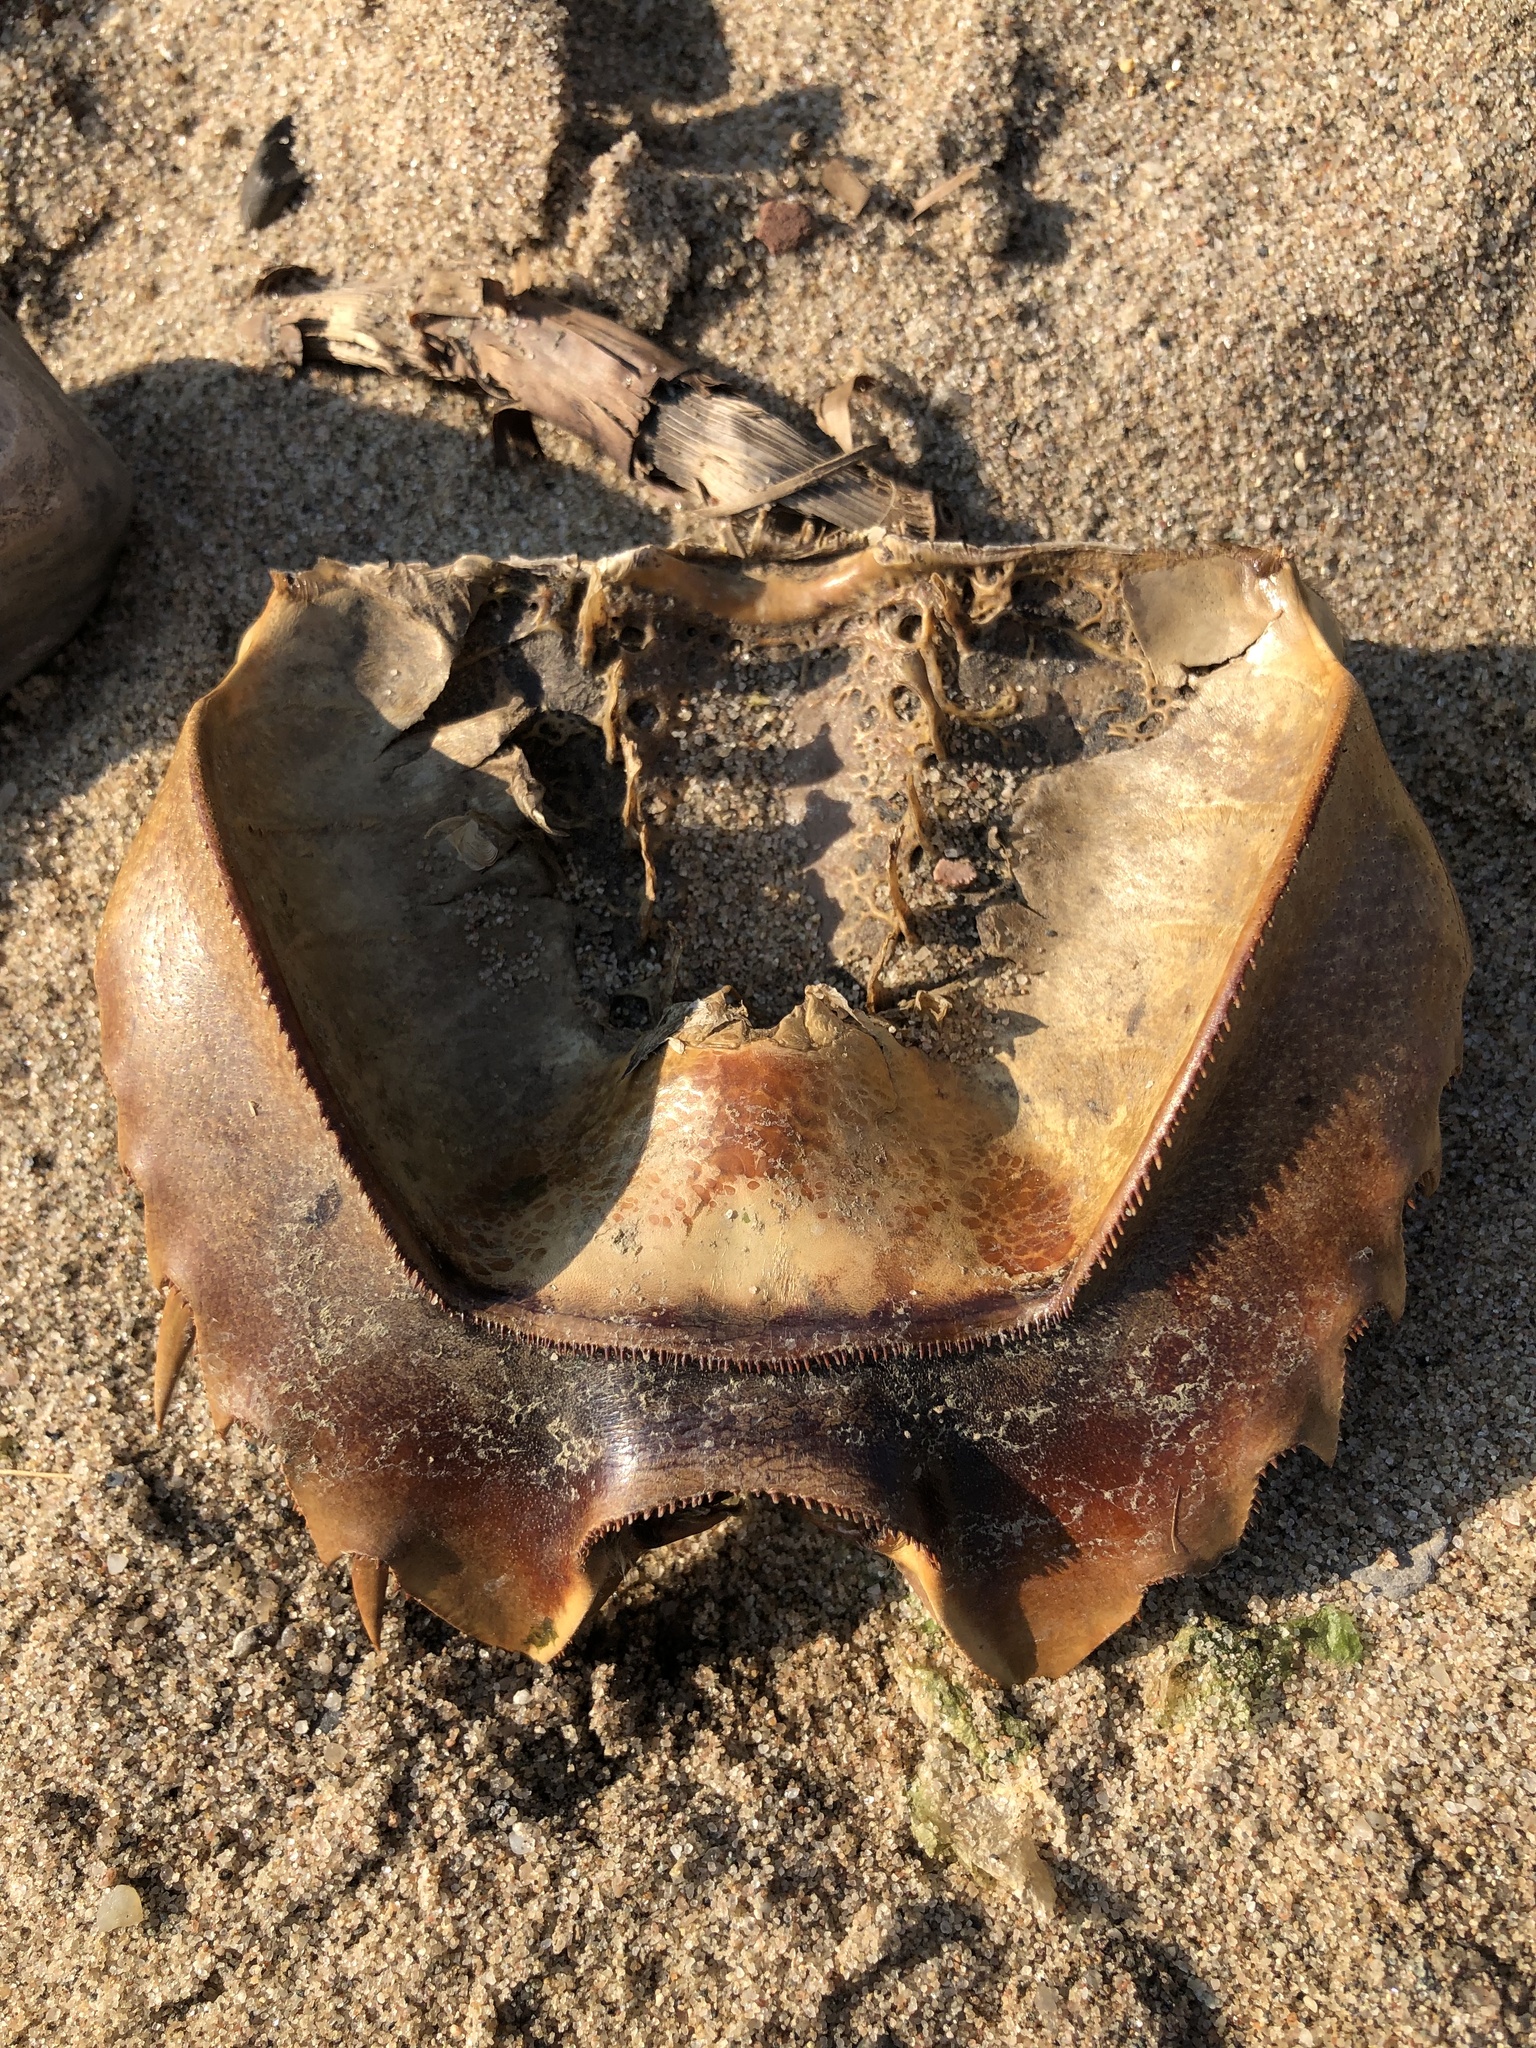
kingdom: Animalia
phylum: Arthropoda
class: Merostomata
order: Xiphosurida
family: Limulidae
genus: Limulus
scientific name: Limulus polyphemus
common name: Horseshoe crab
